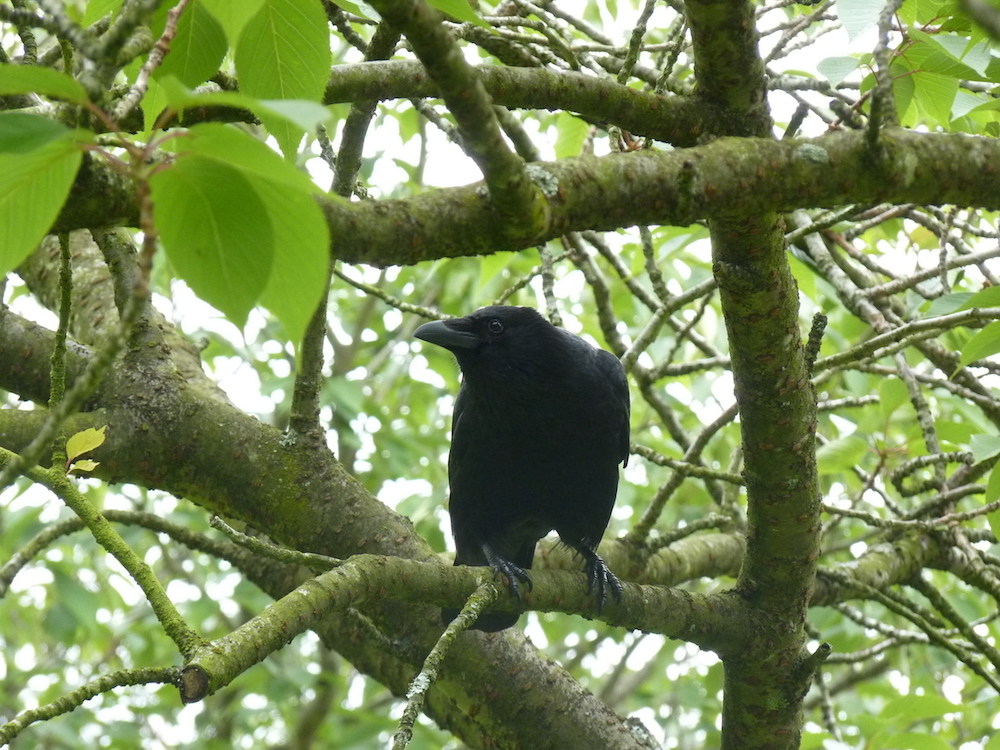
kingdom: Animalia
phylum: Chordata
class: Aves
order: Passeriformes
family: Corvidae
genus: Corvus
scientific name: Corvus corone
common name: Carrion crow
